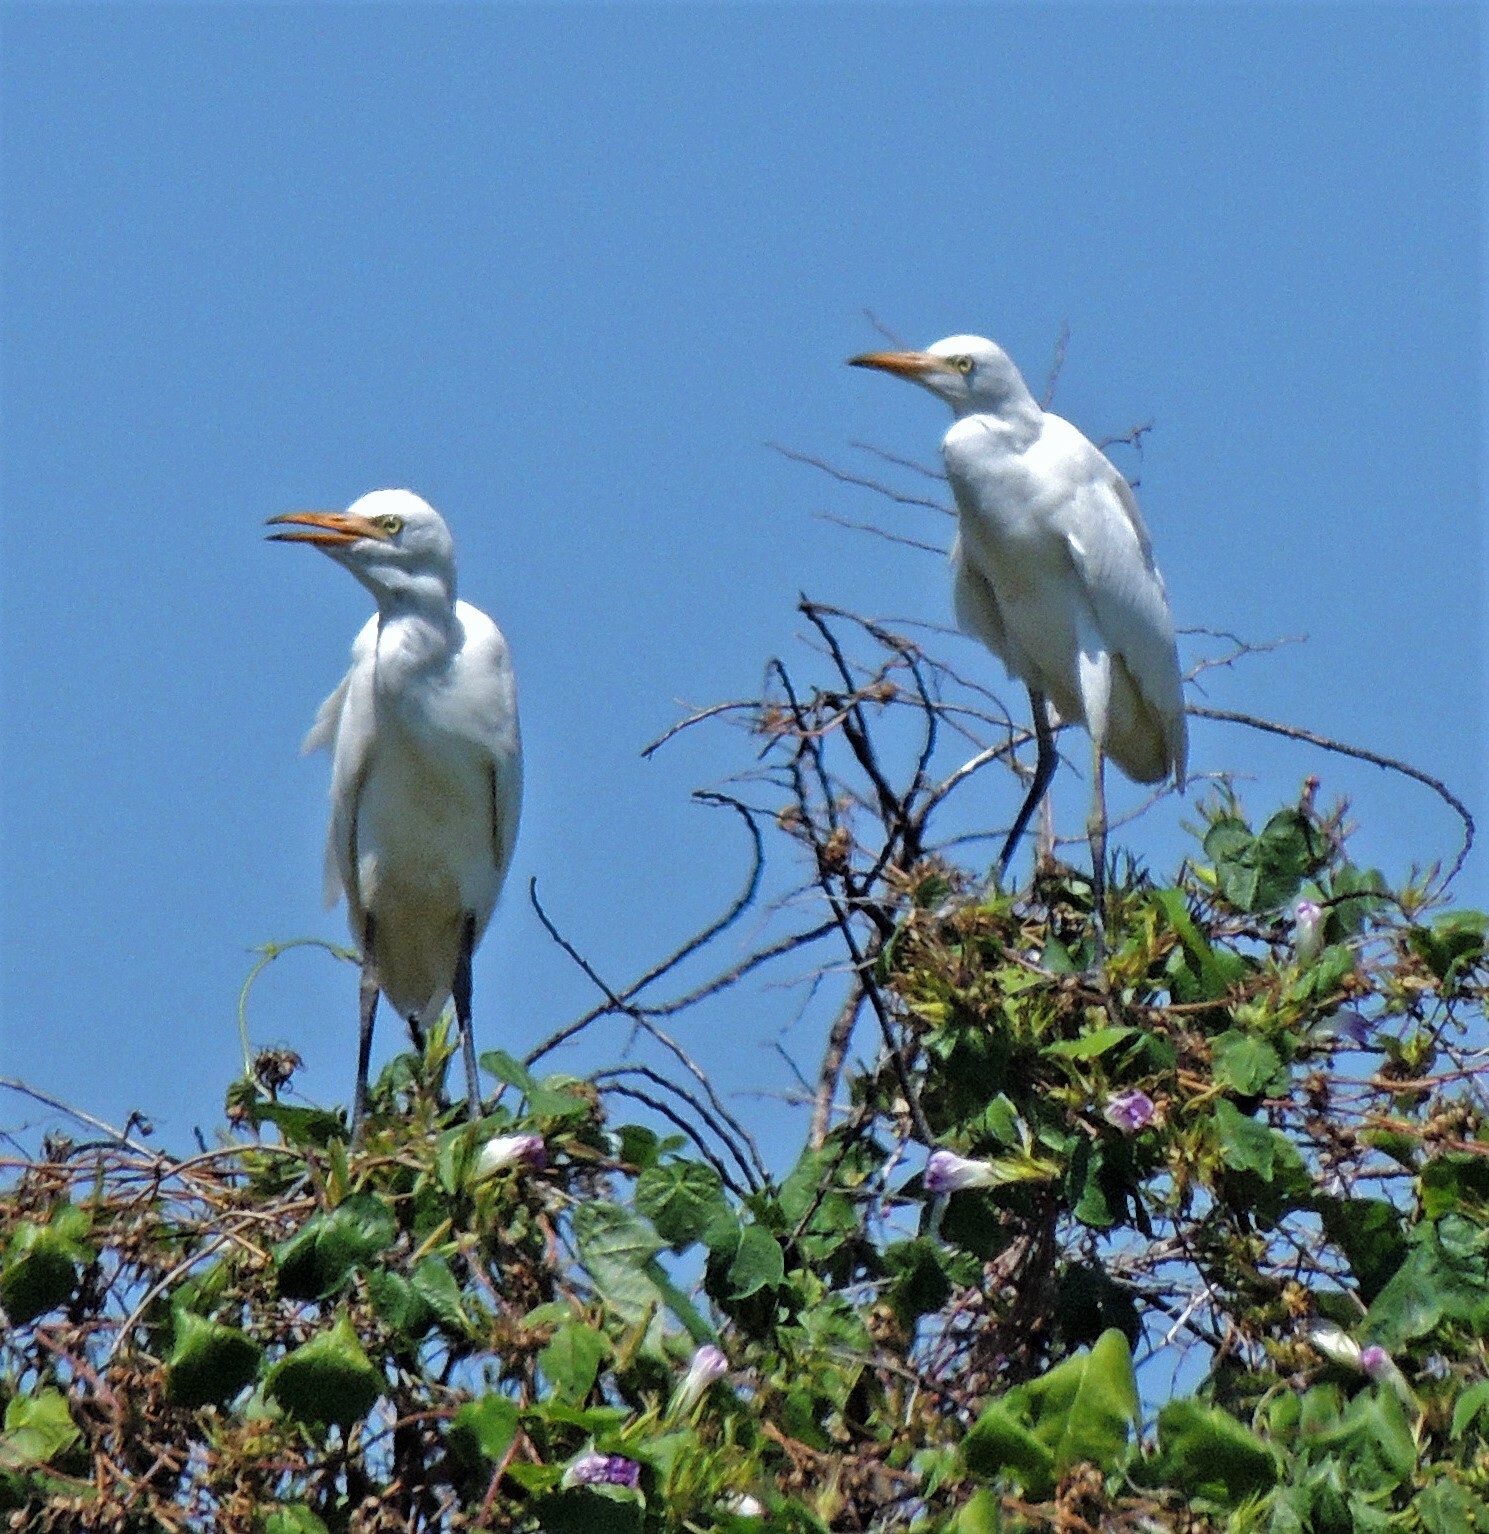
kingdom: Animalia
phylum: Chordata
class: Aves
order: Pelecaniformes
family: Ardeidae
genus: Bubulcus
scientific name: Bubulcus ibis
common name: Cattle egret
